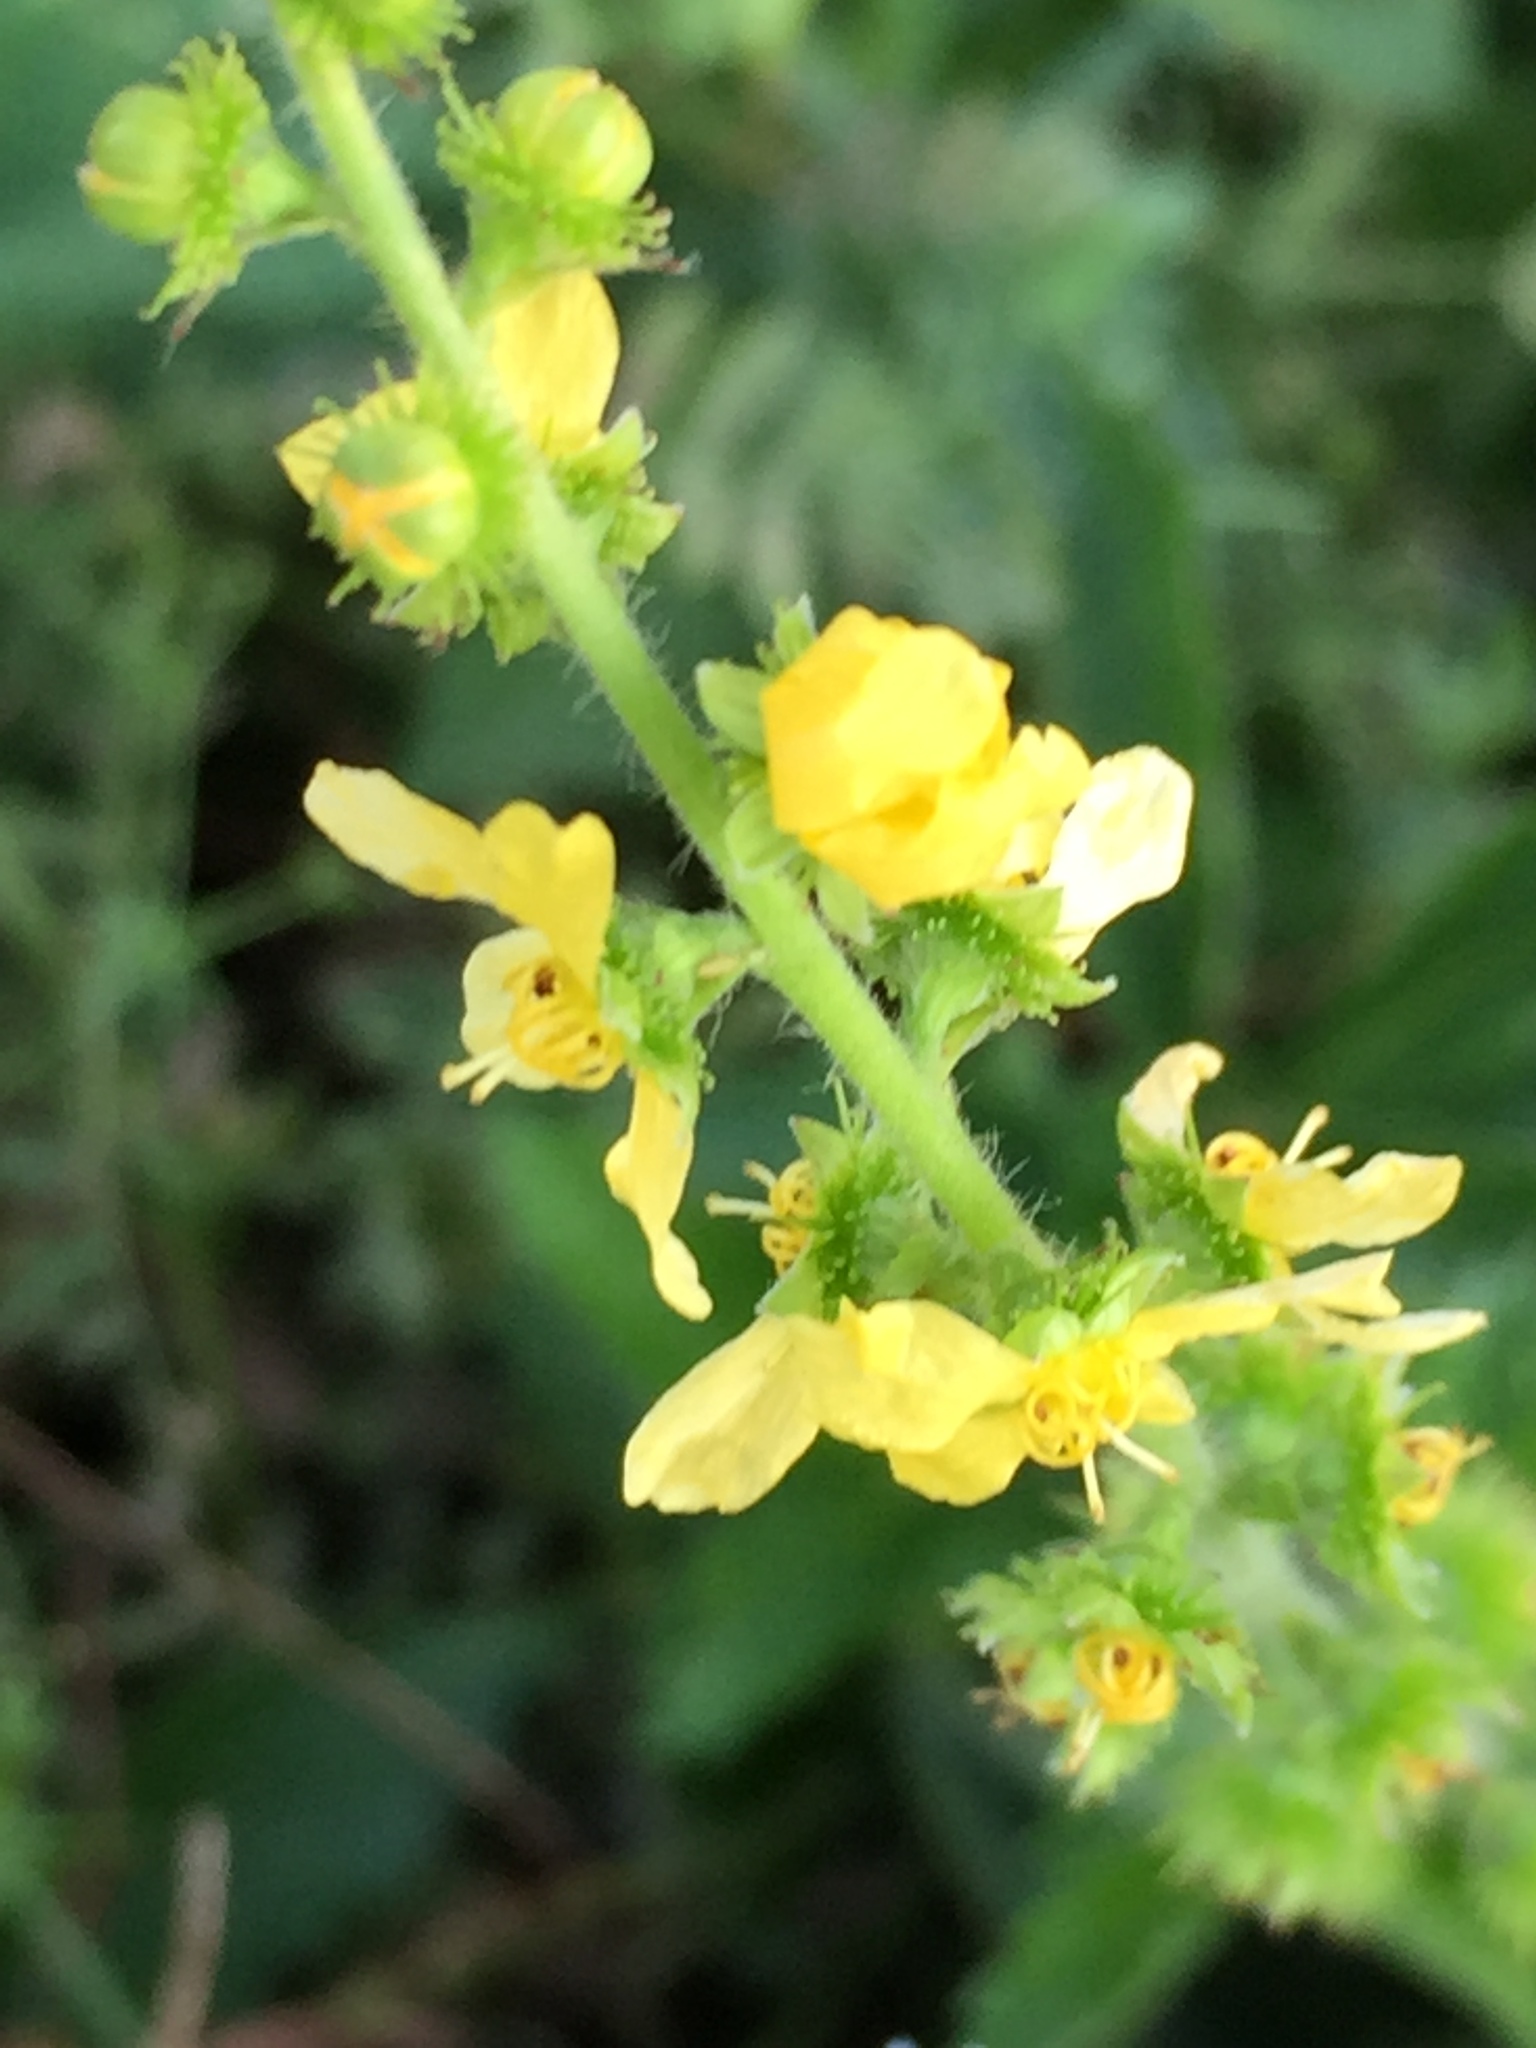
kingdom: Plantae
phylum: Tracheophyta
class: Magnoliopsida
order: Rosales
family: Rosaceae
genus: Agrimonia
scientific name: Agrimonia eupatoria
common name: Agrimony
